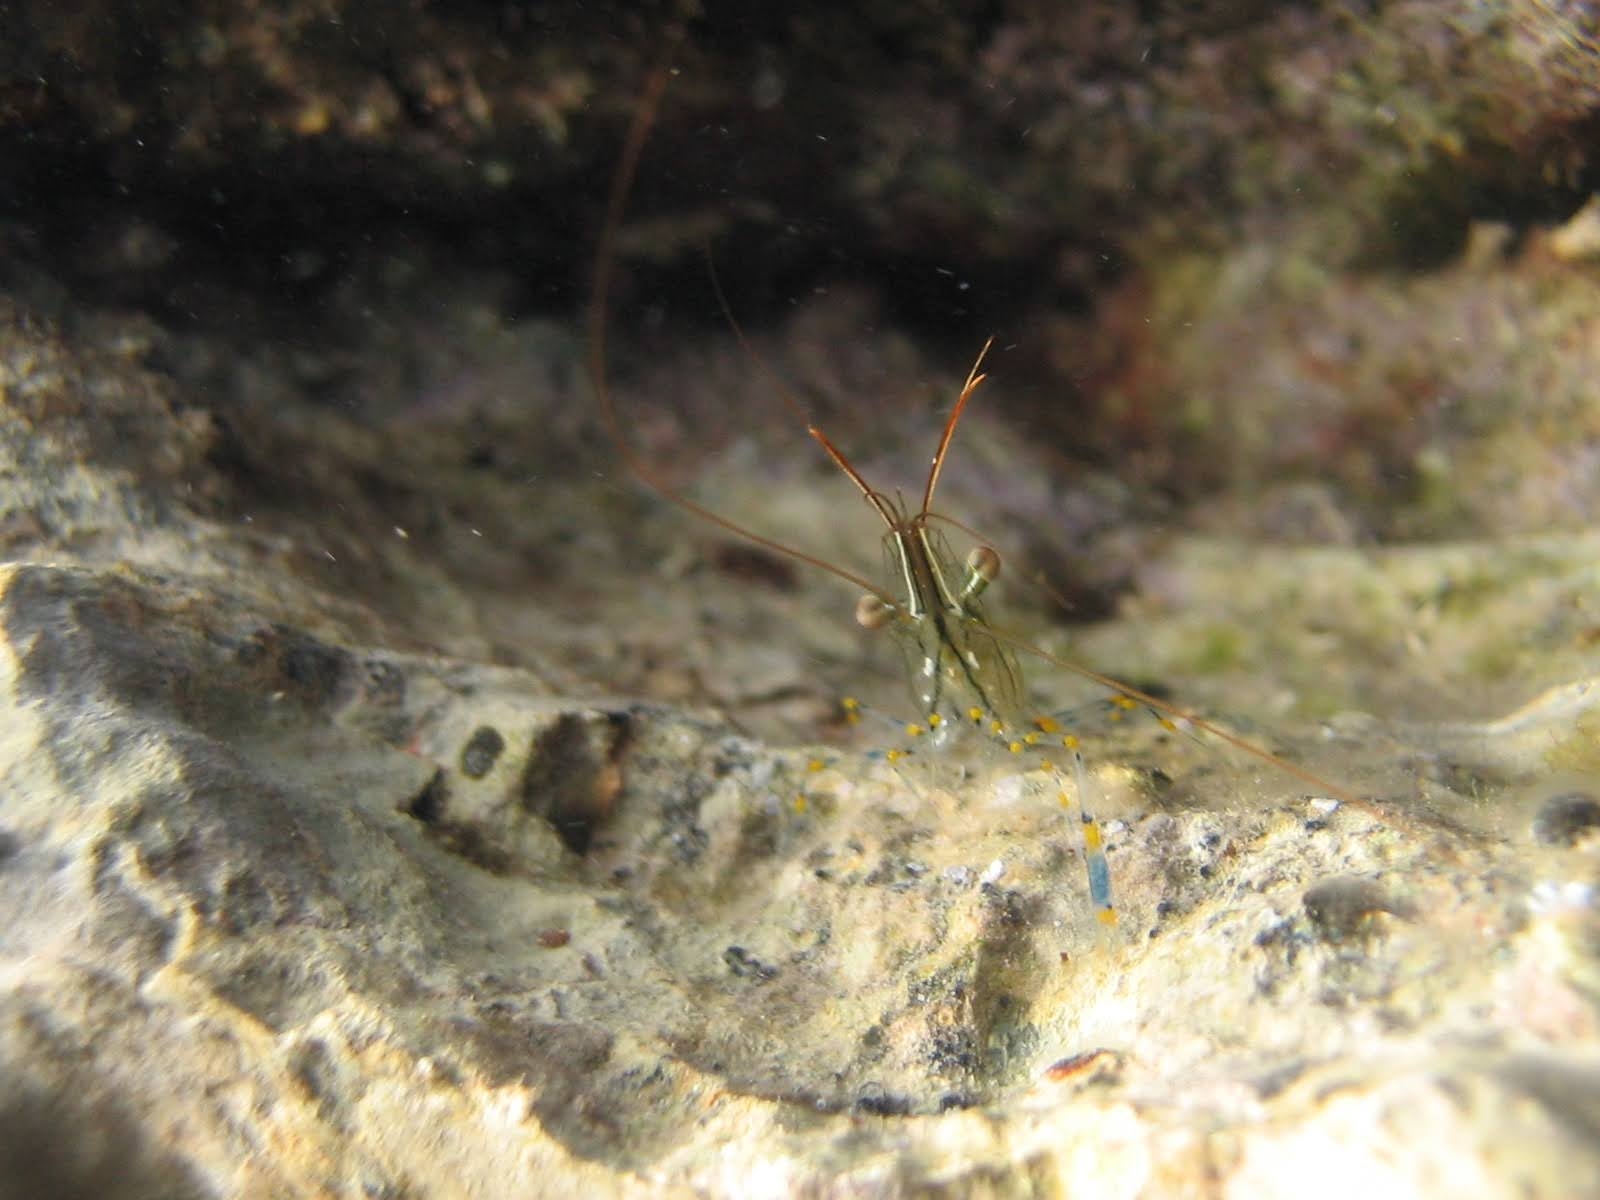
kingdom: Animalia
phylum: Arthropoda
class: Malacostraca
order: Decapoda
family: Palaemonidae
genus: Palaemon
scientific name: Palaemon elegans
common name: Grass prawm
